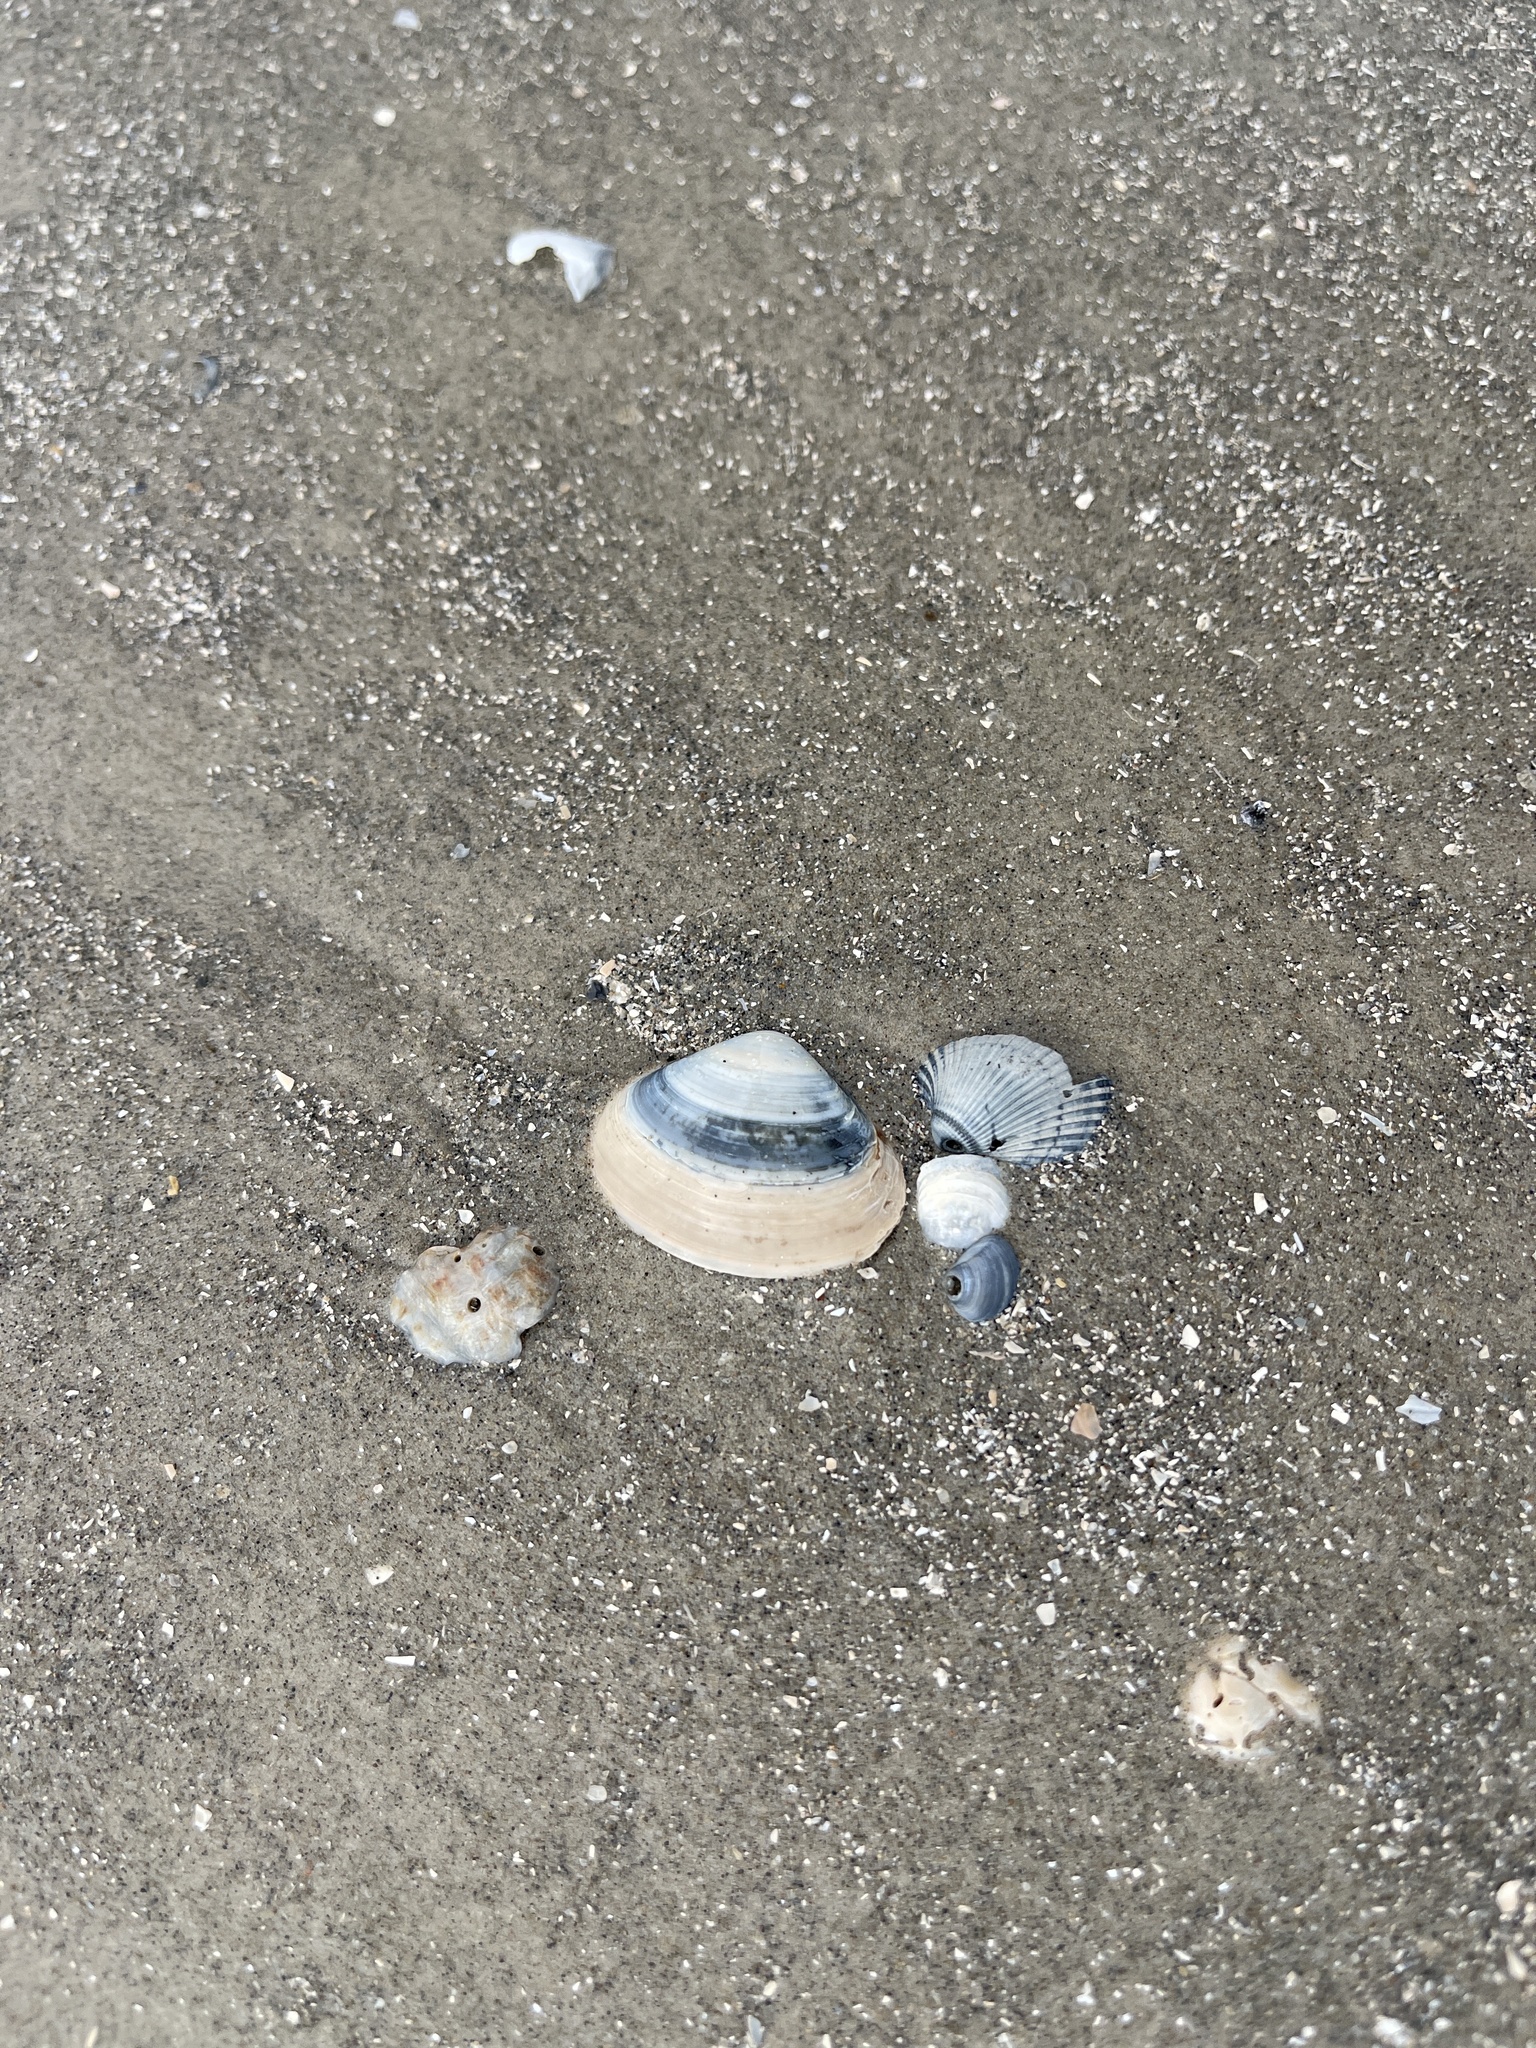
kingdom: Animalia
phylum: Mollusca
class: Bivalvia
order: Venerida
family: Mactridae
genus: Spisula
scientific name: Spisula raveneli
